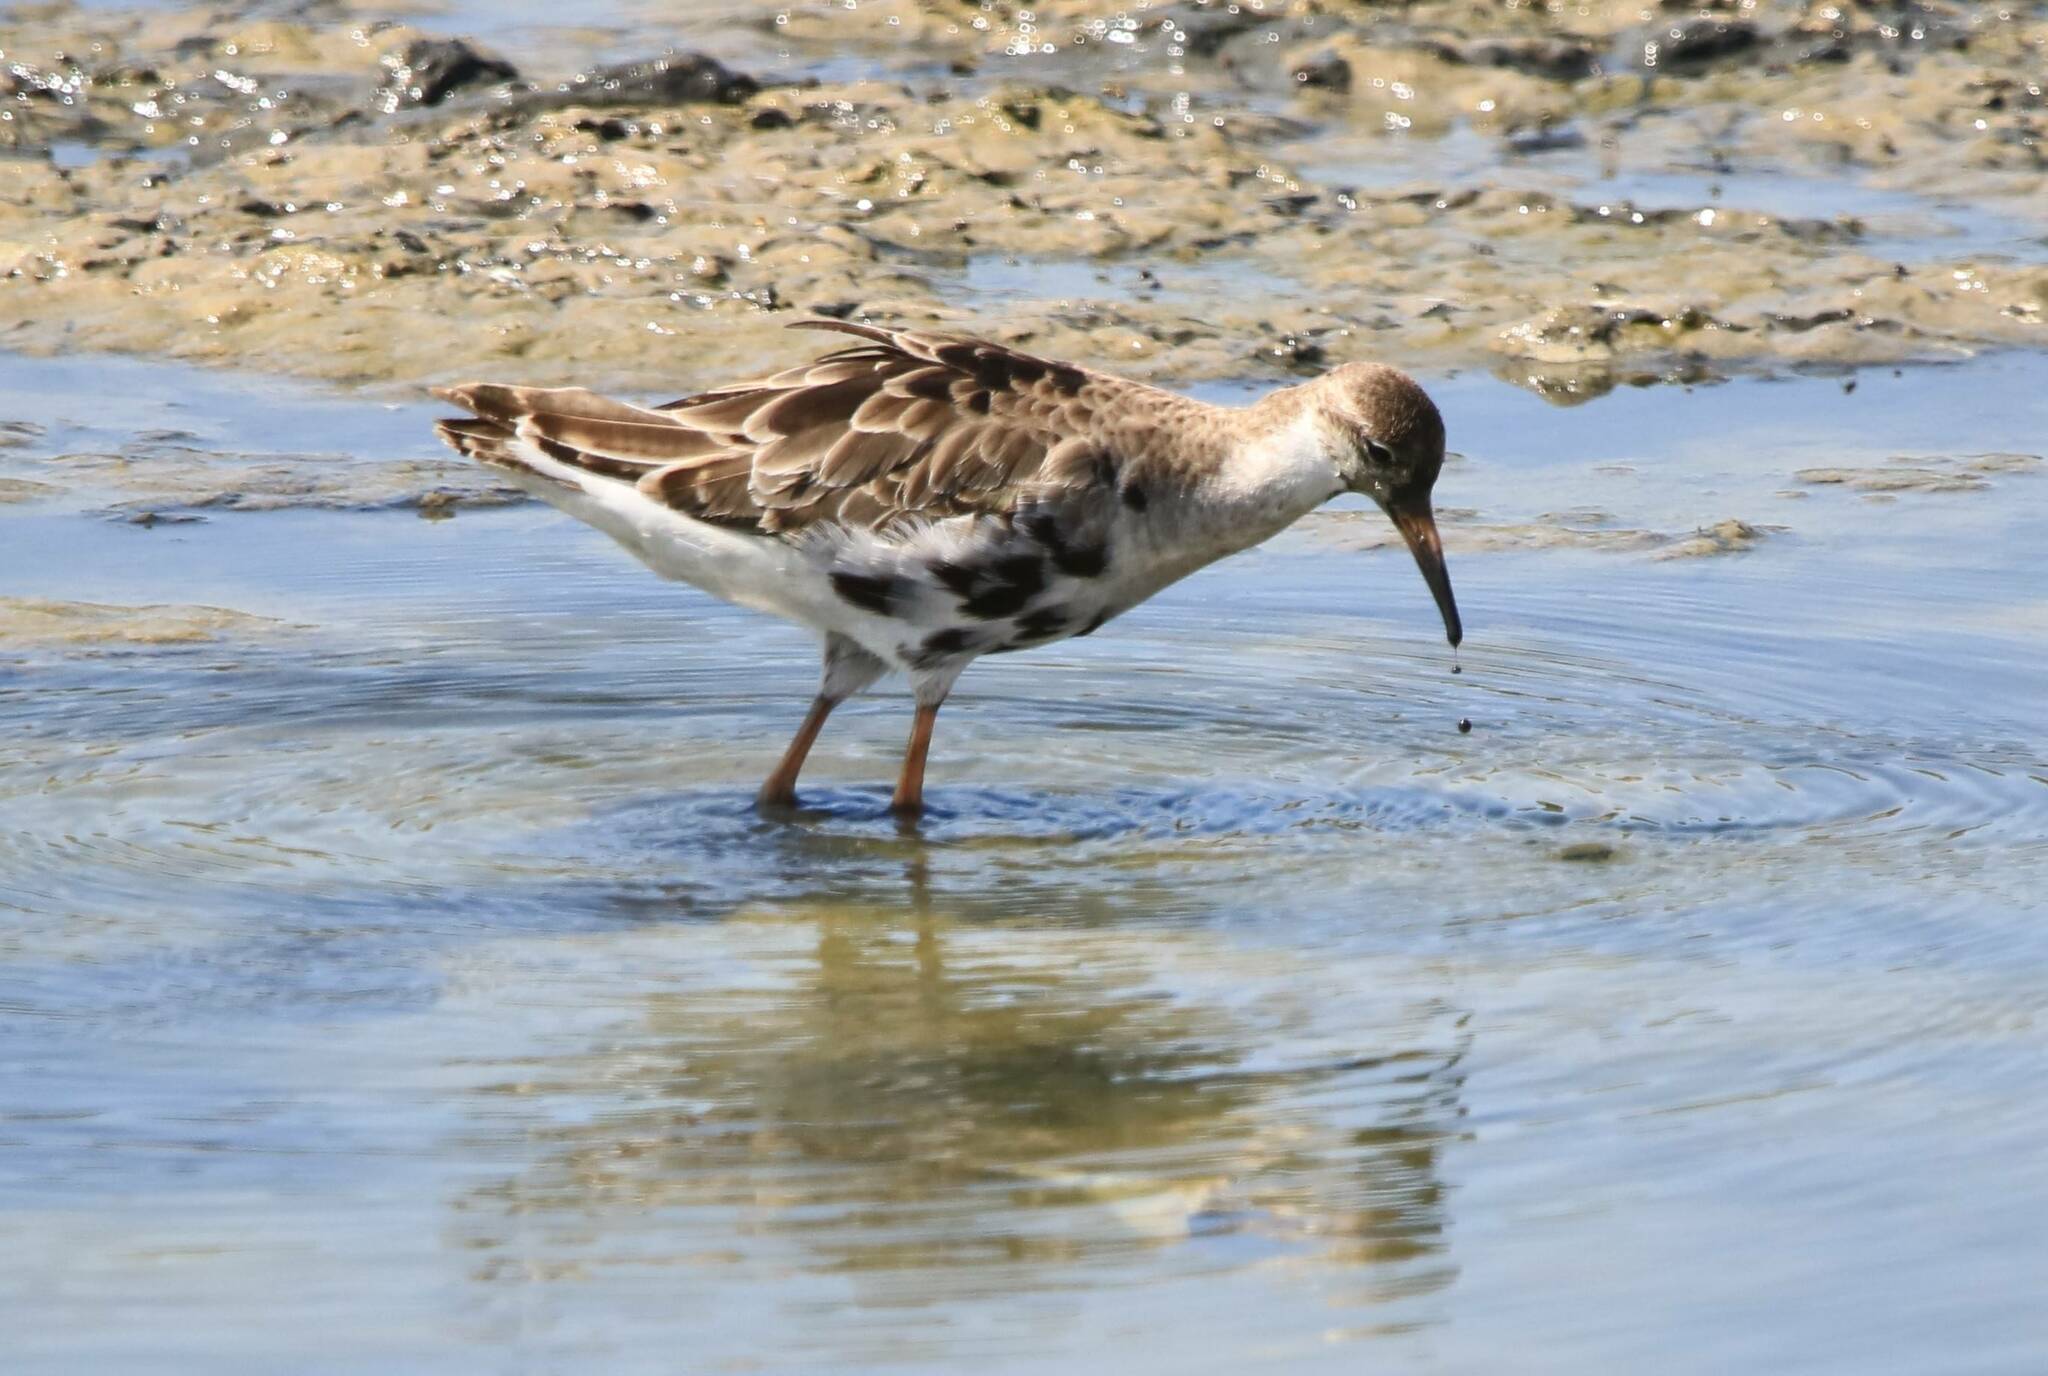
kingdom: Animalia
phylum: Chordata
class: Aves
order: Charadriiformes
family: Scolopacidae
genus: Calidris
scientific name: Calidris pugnax
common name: Ruff
